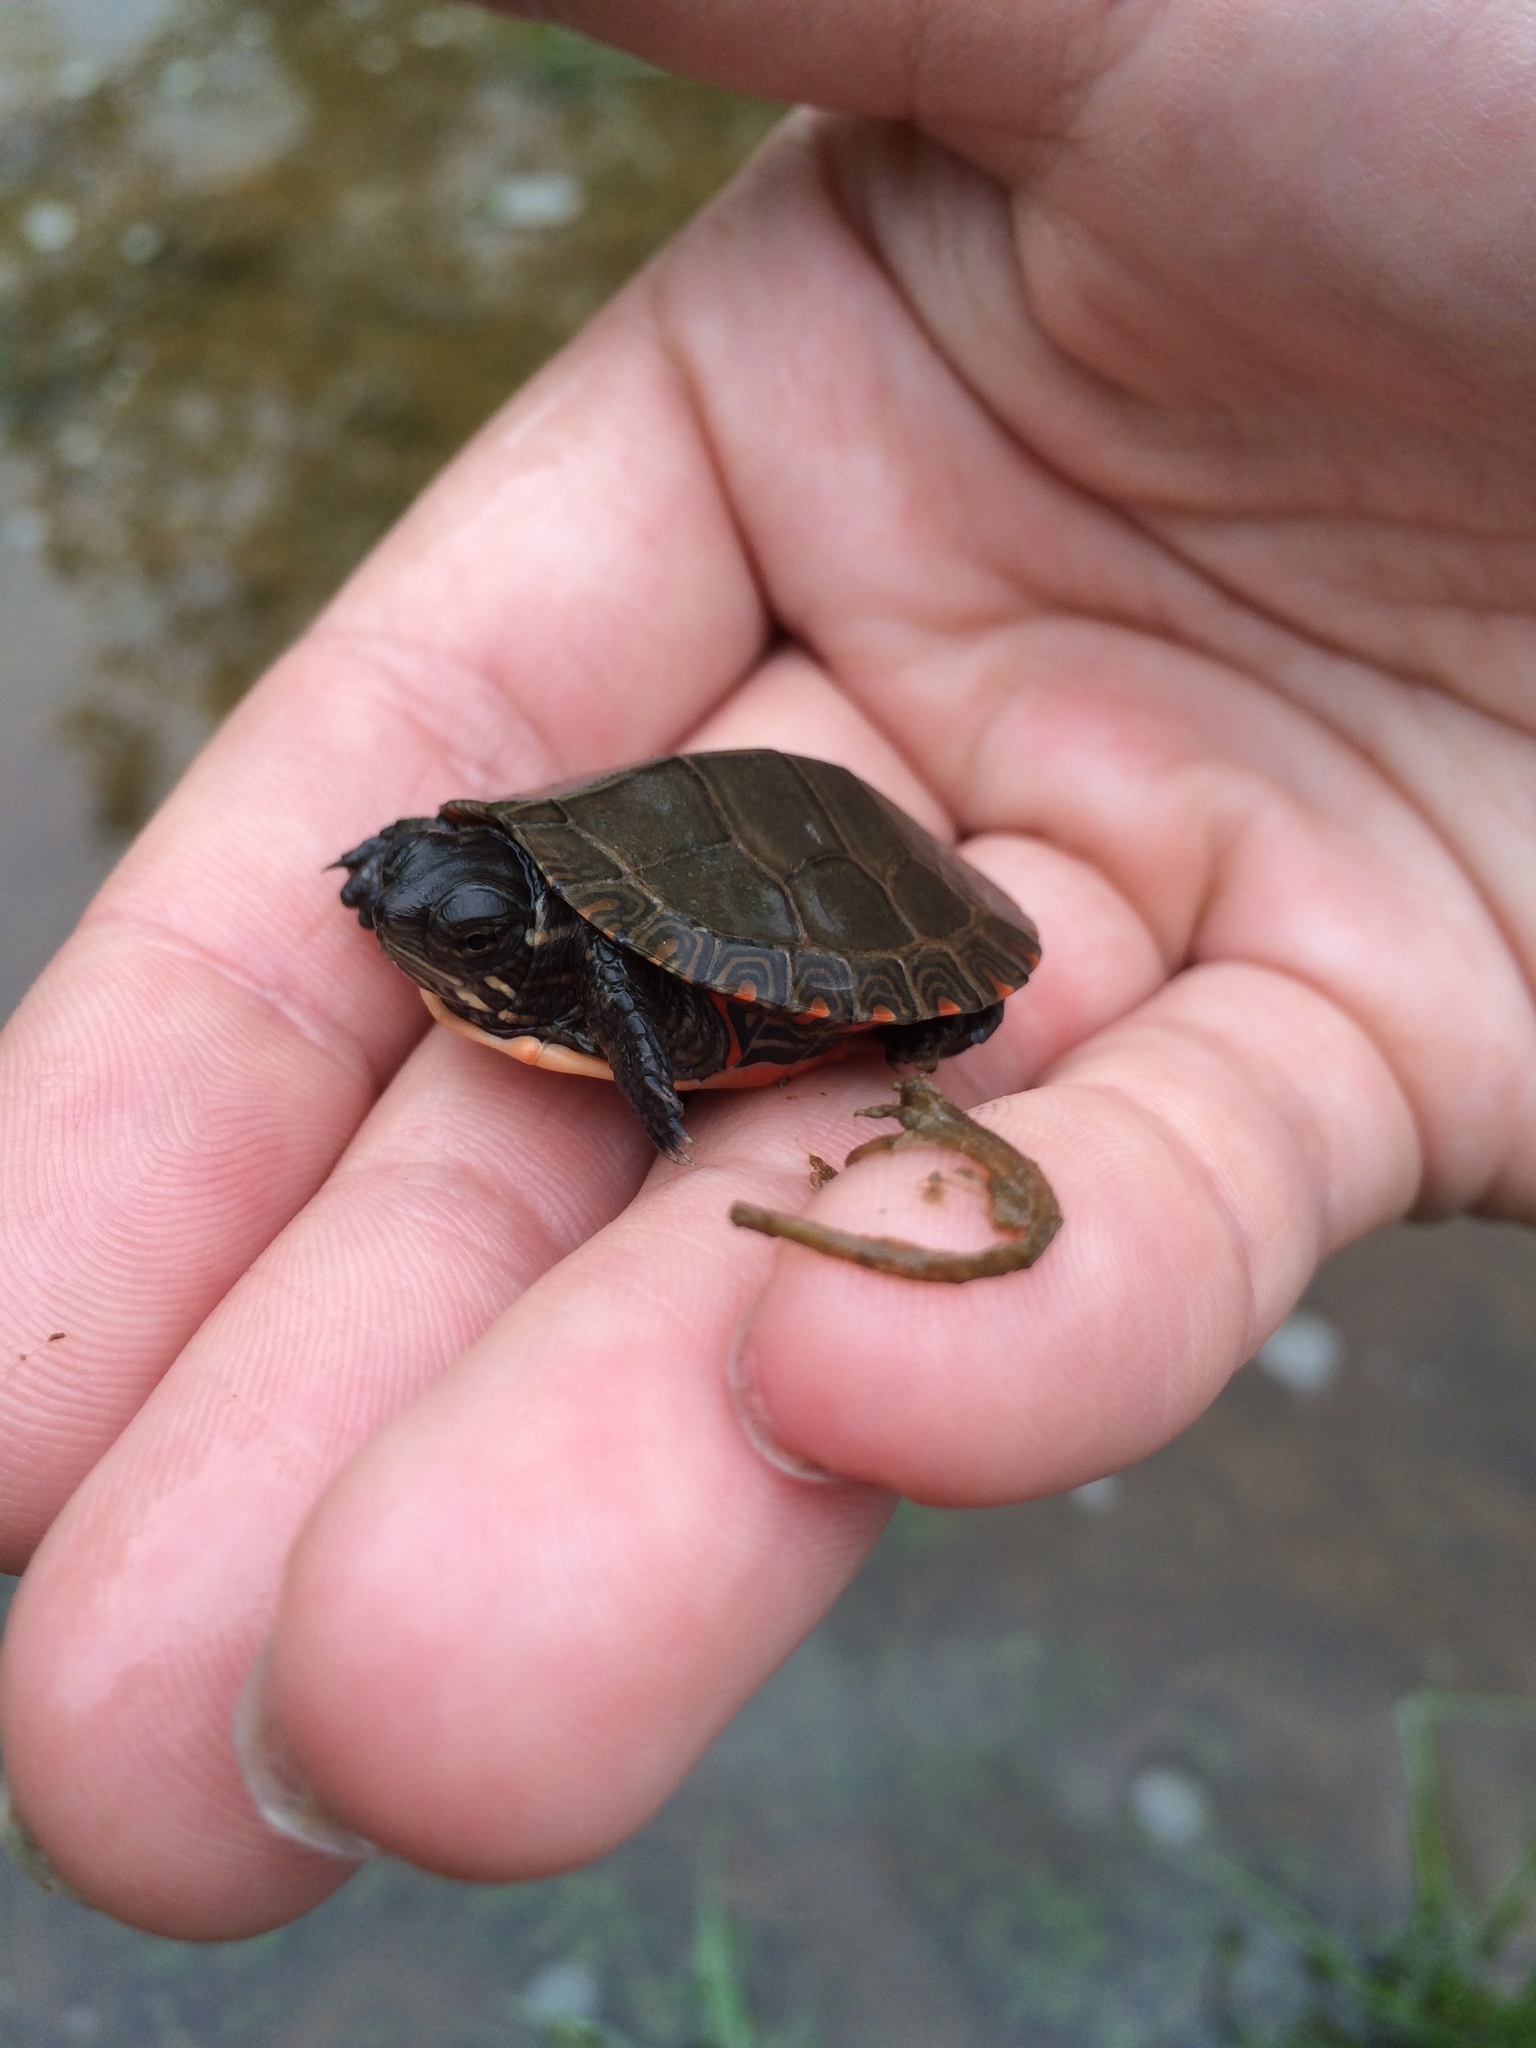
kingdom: Animalia
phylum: Chordata
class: Testudines
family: Emydidae
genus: Chrysemys
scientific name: Chrysemys picta
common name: Painted turtle
